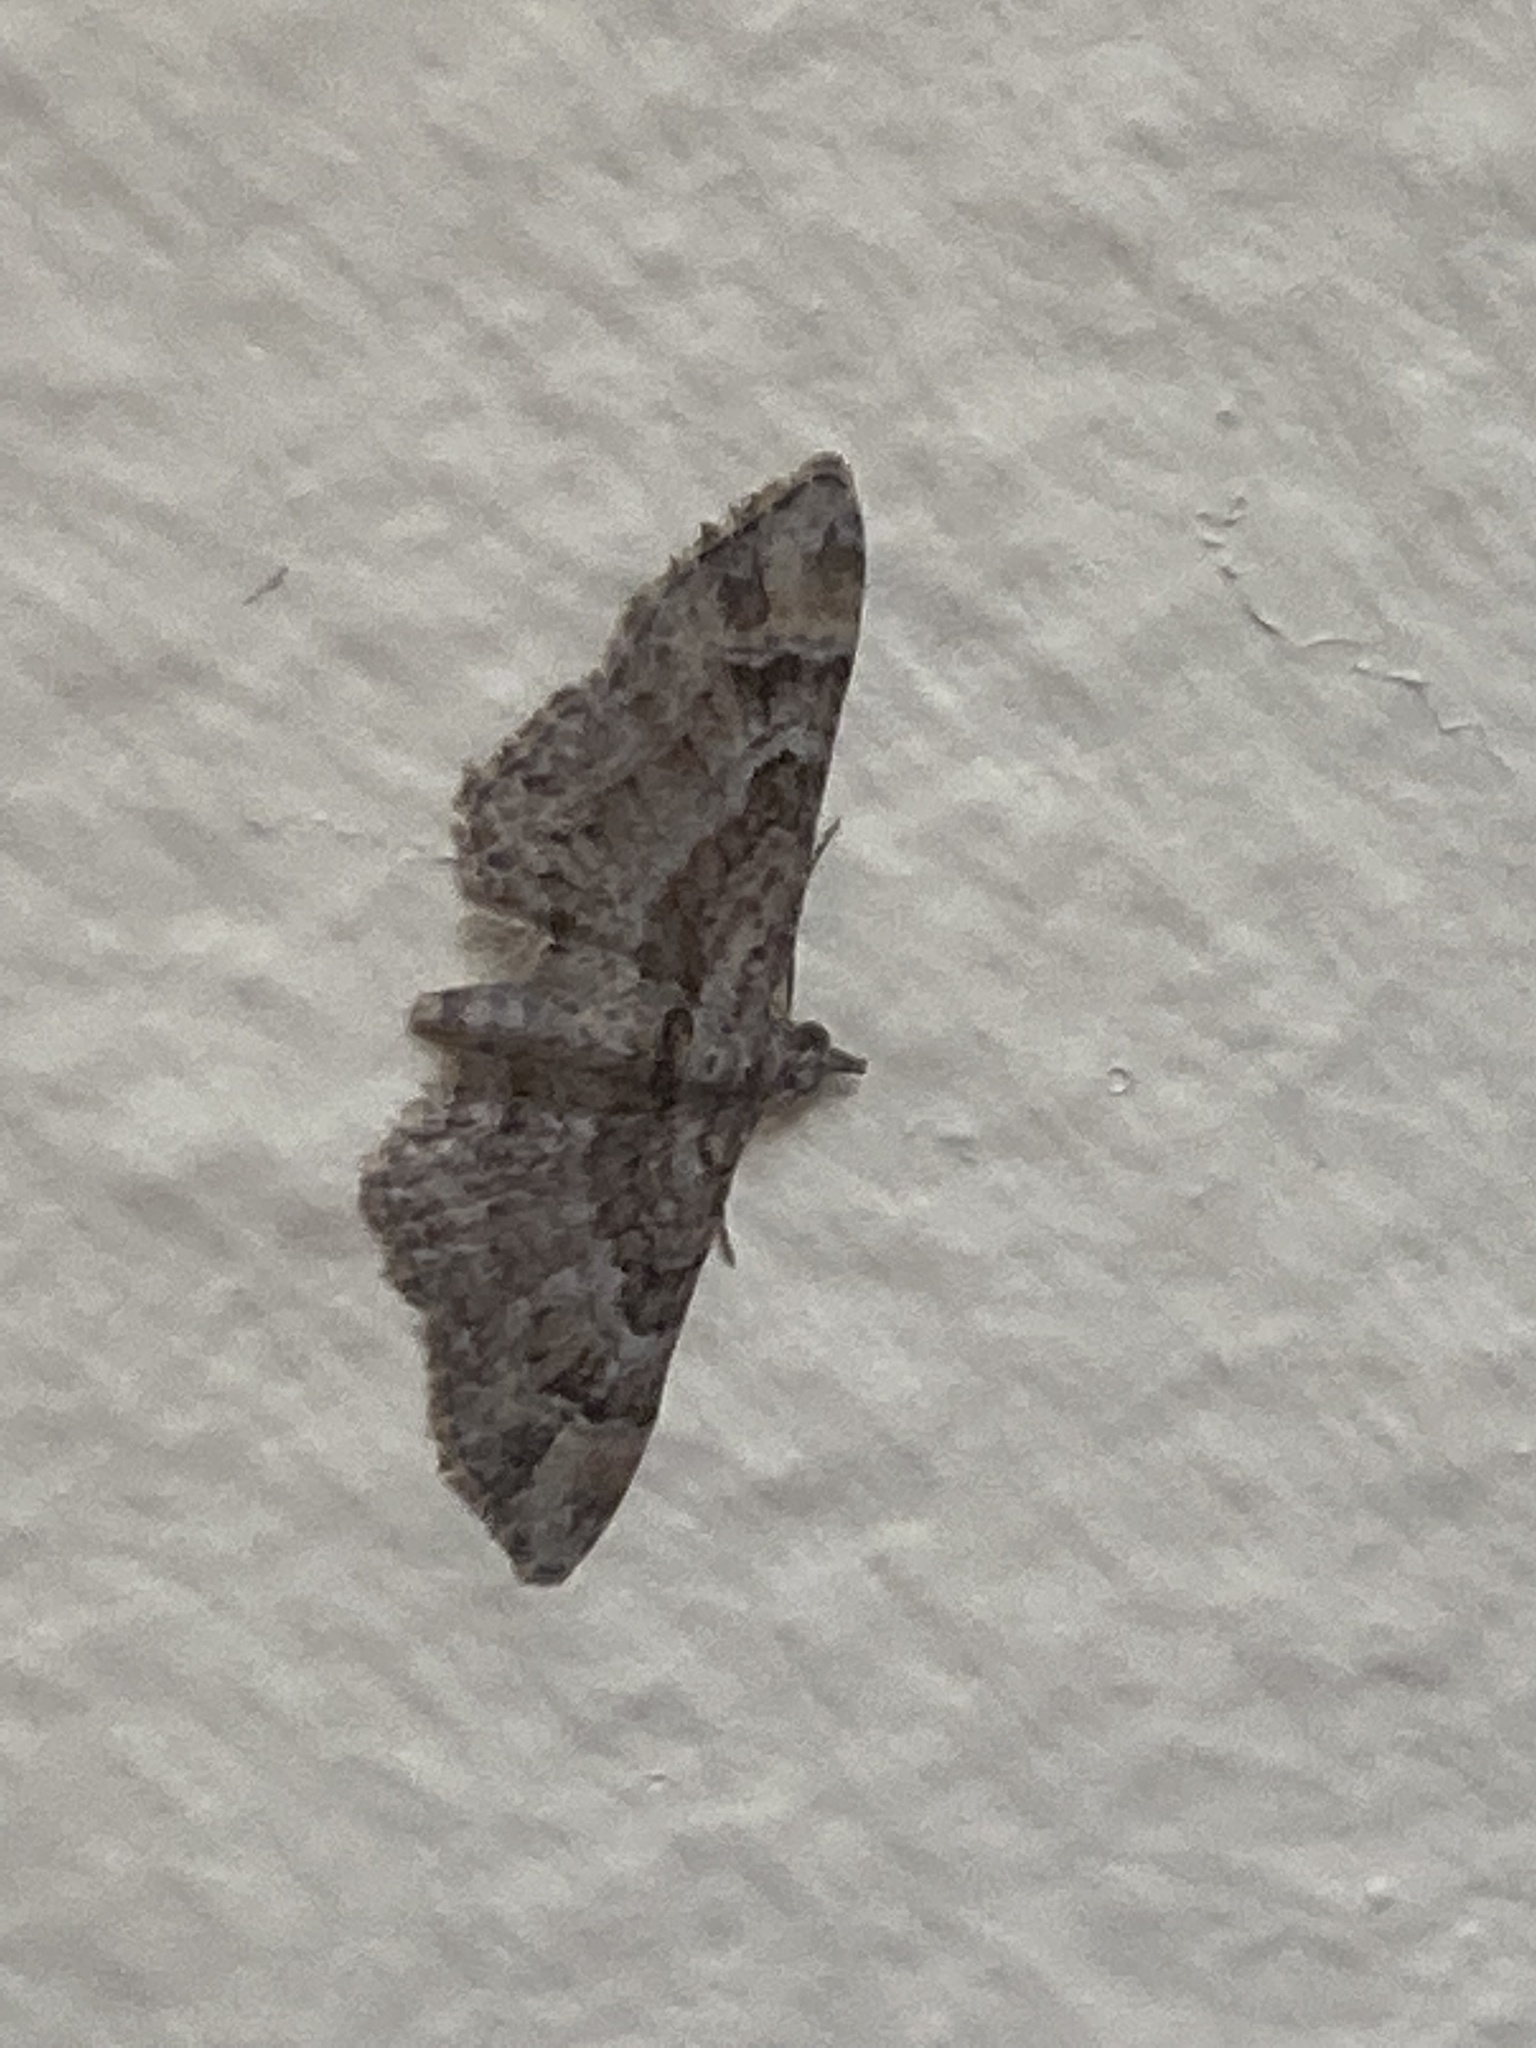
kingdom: Animalia
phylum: Arthropoda
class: Insecta
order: Lepidoptera
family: Geometridae
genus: Gymnoscelis
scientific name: Gymnoscelis rufifasciata
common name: Double-striped pug
